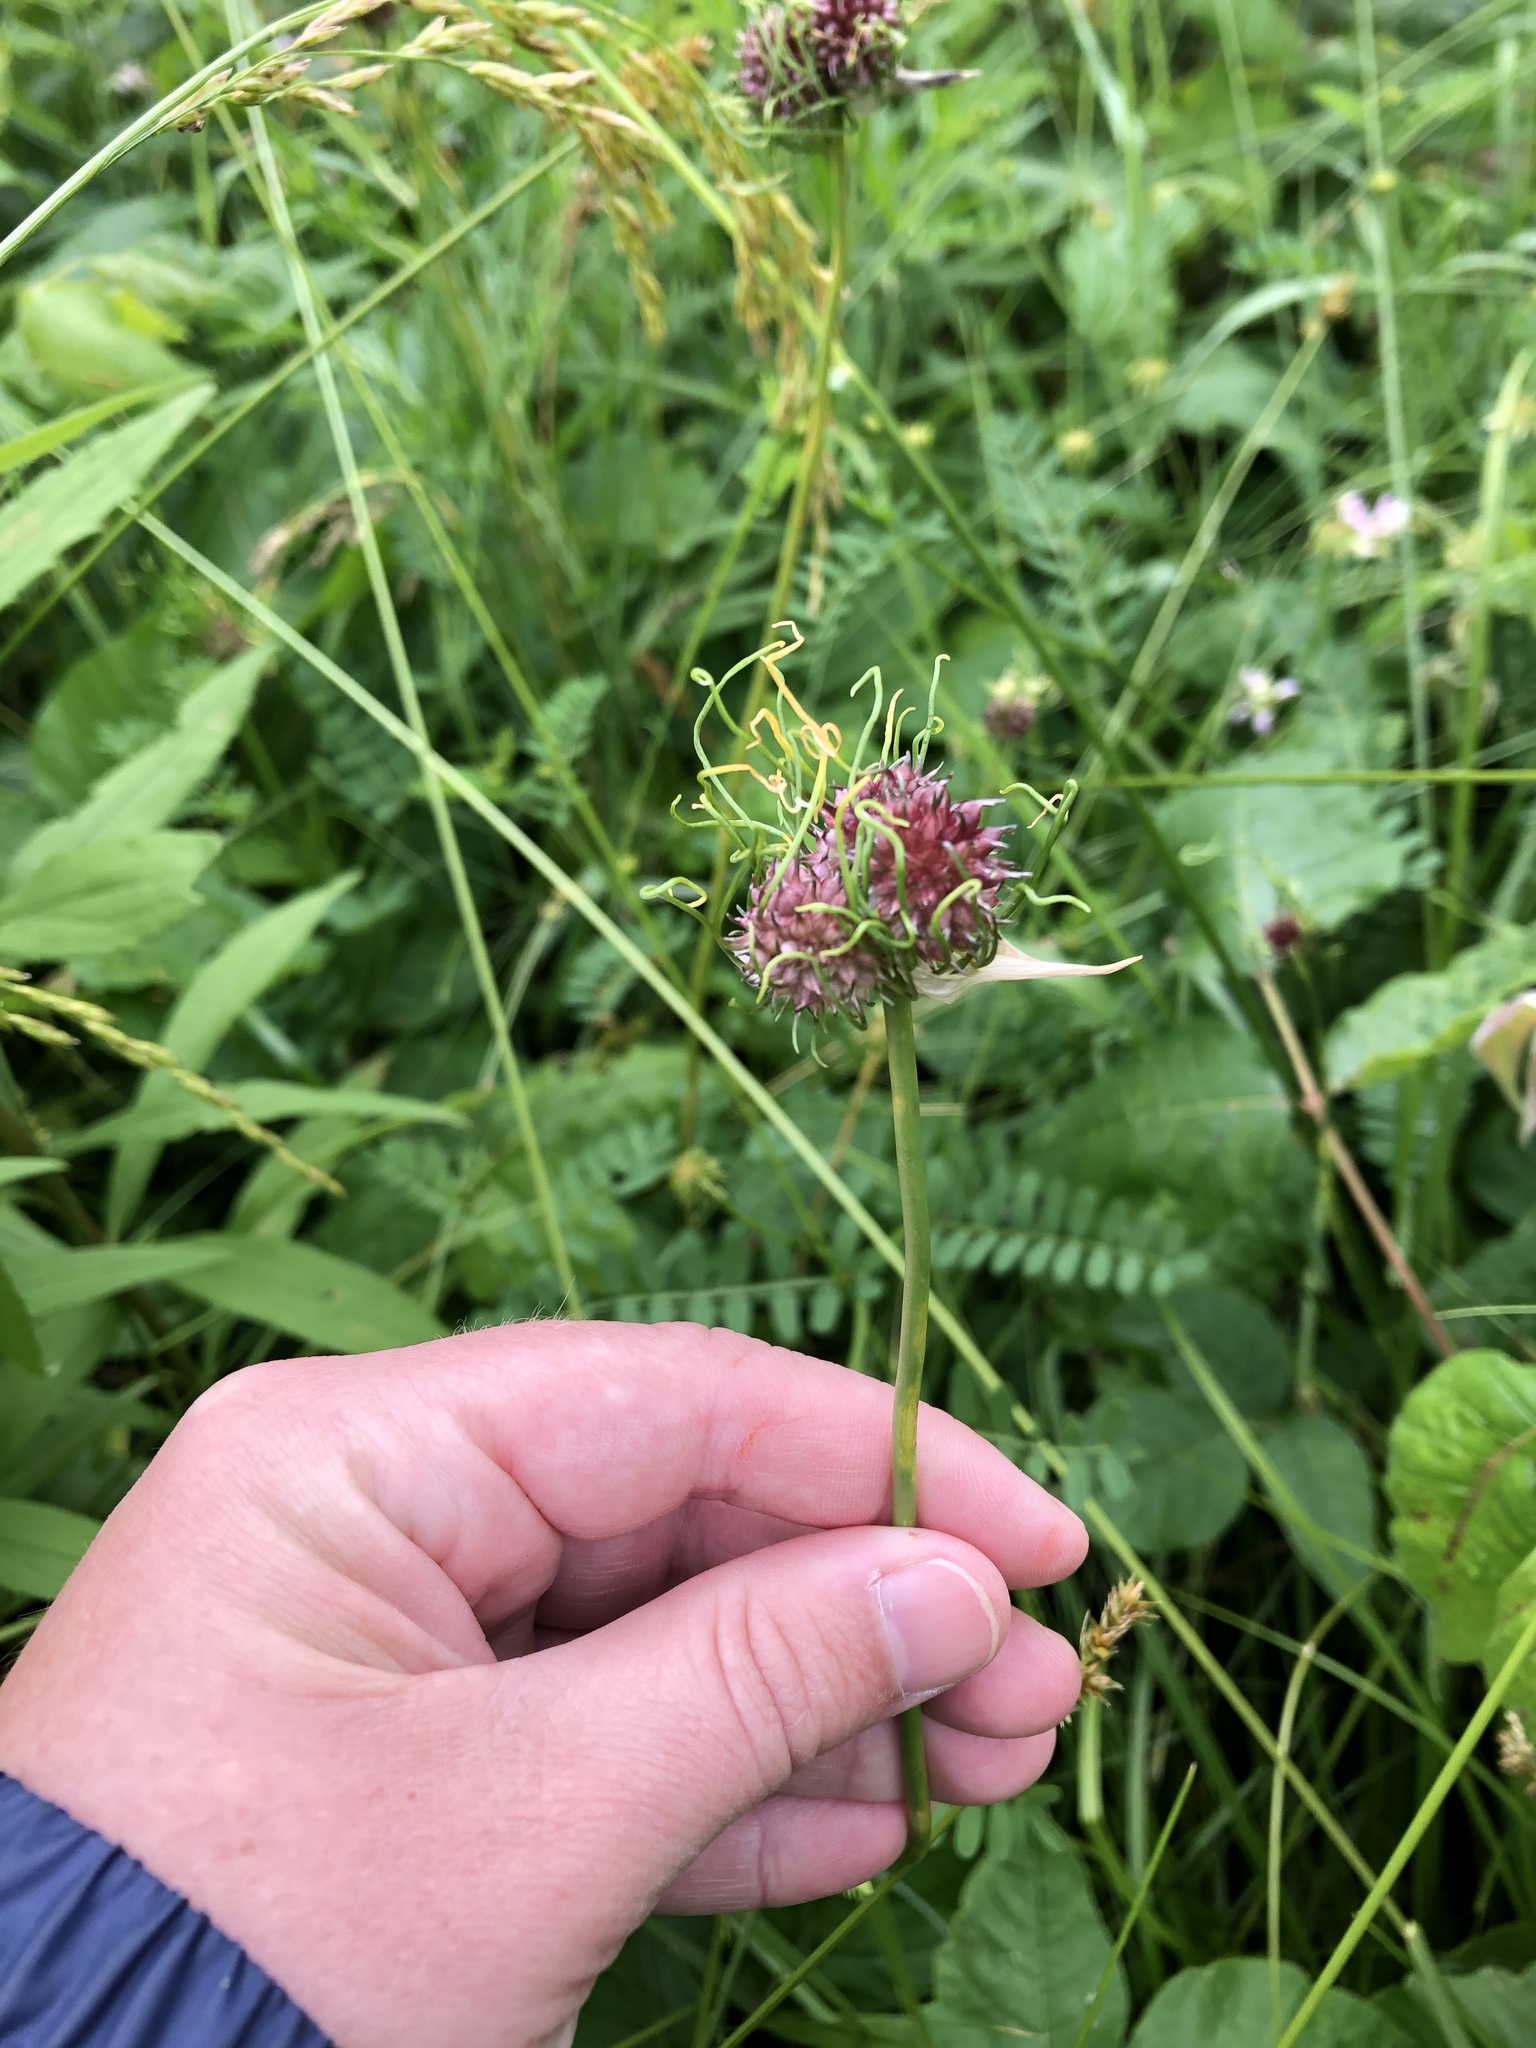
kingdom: Plantae
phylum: Tracheophyta
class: Liliopsida
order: Asparagales
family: Amaryllidaceae
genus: Allium
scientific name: Allium vineale
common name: Crow garlic
